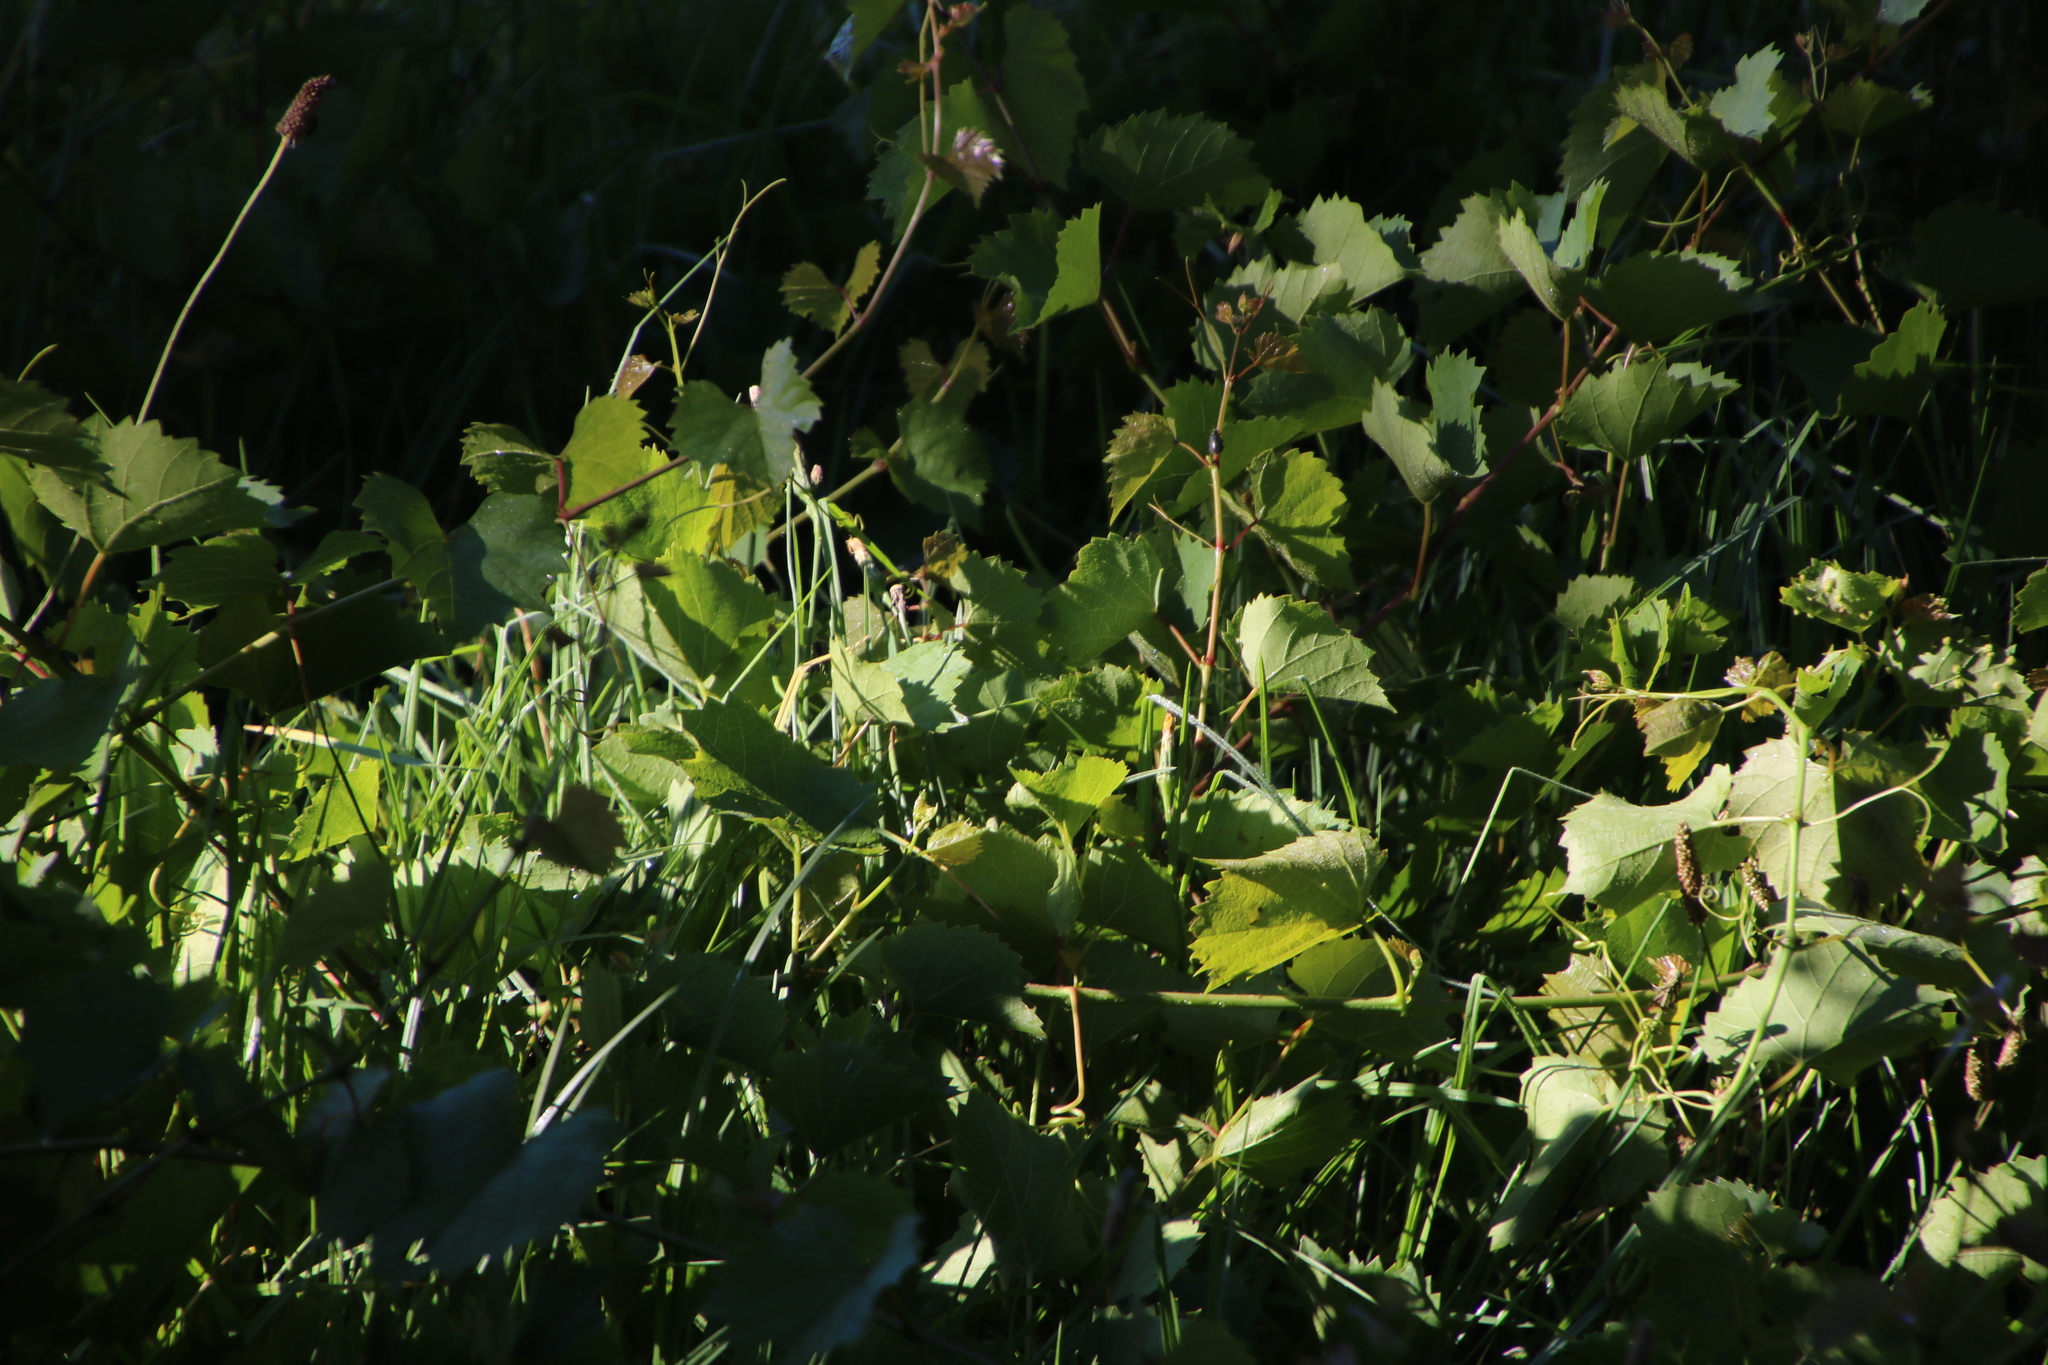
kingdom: Plantae
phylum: Tracheophyta
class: Magnoliopsida
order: Vitales
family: Vitaceae
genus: Vitis
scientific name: Vitis vinifera
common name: Grape-vine
